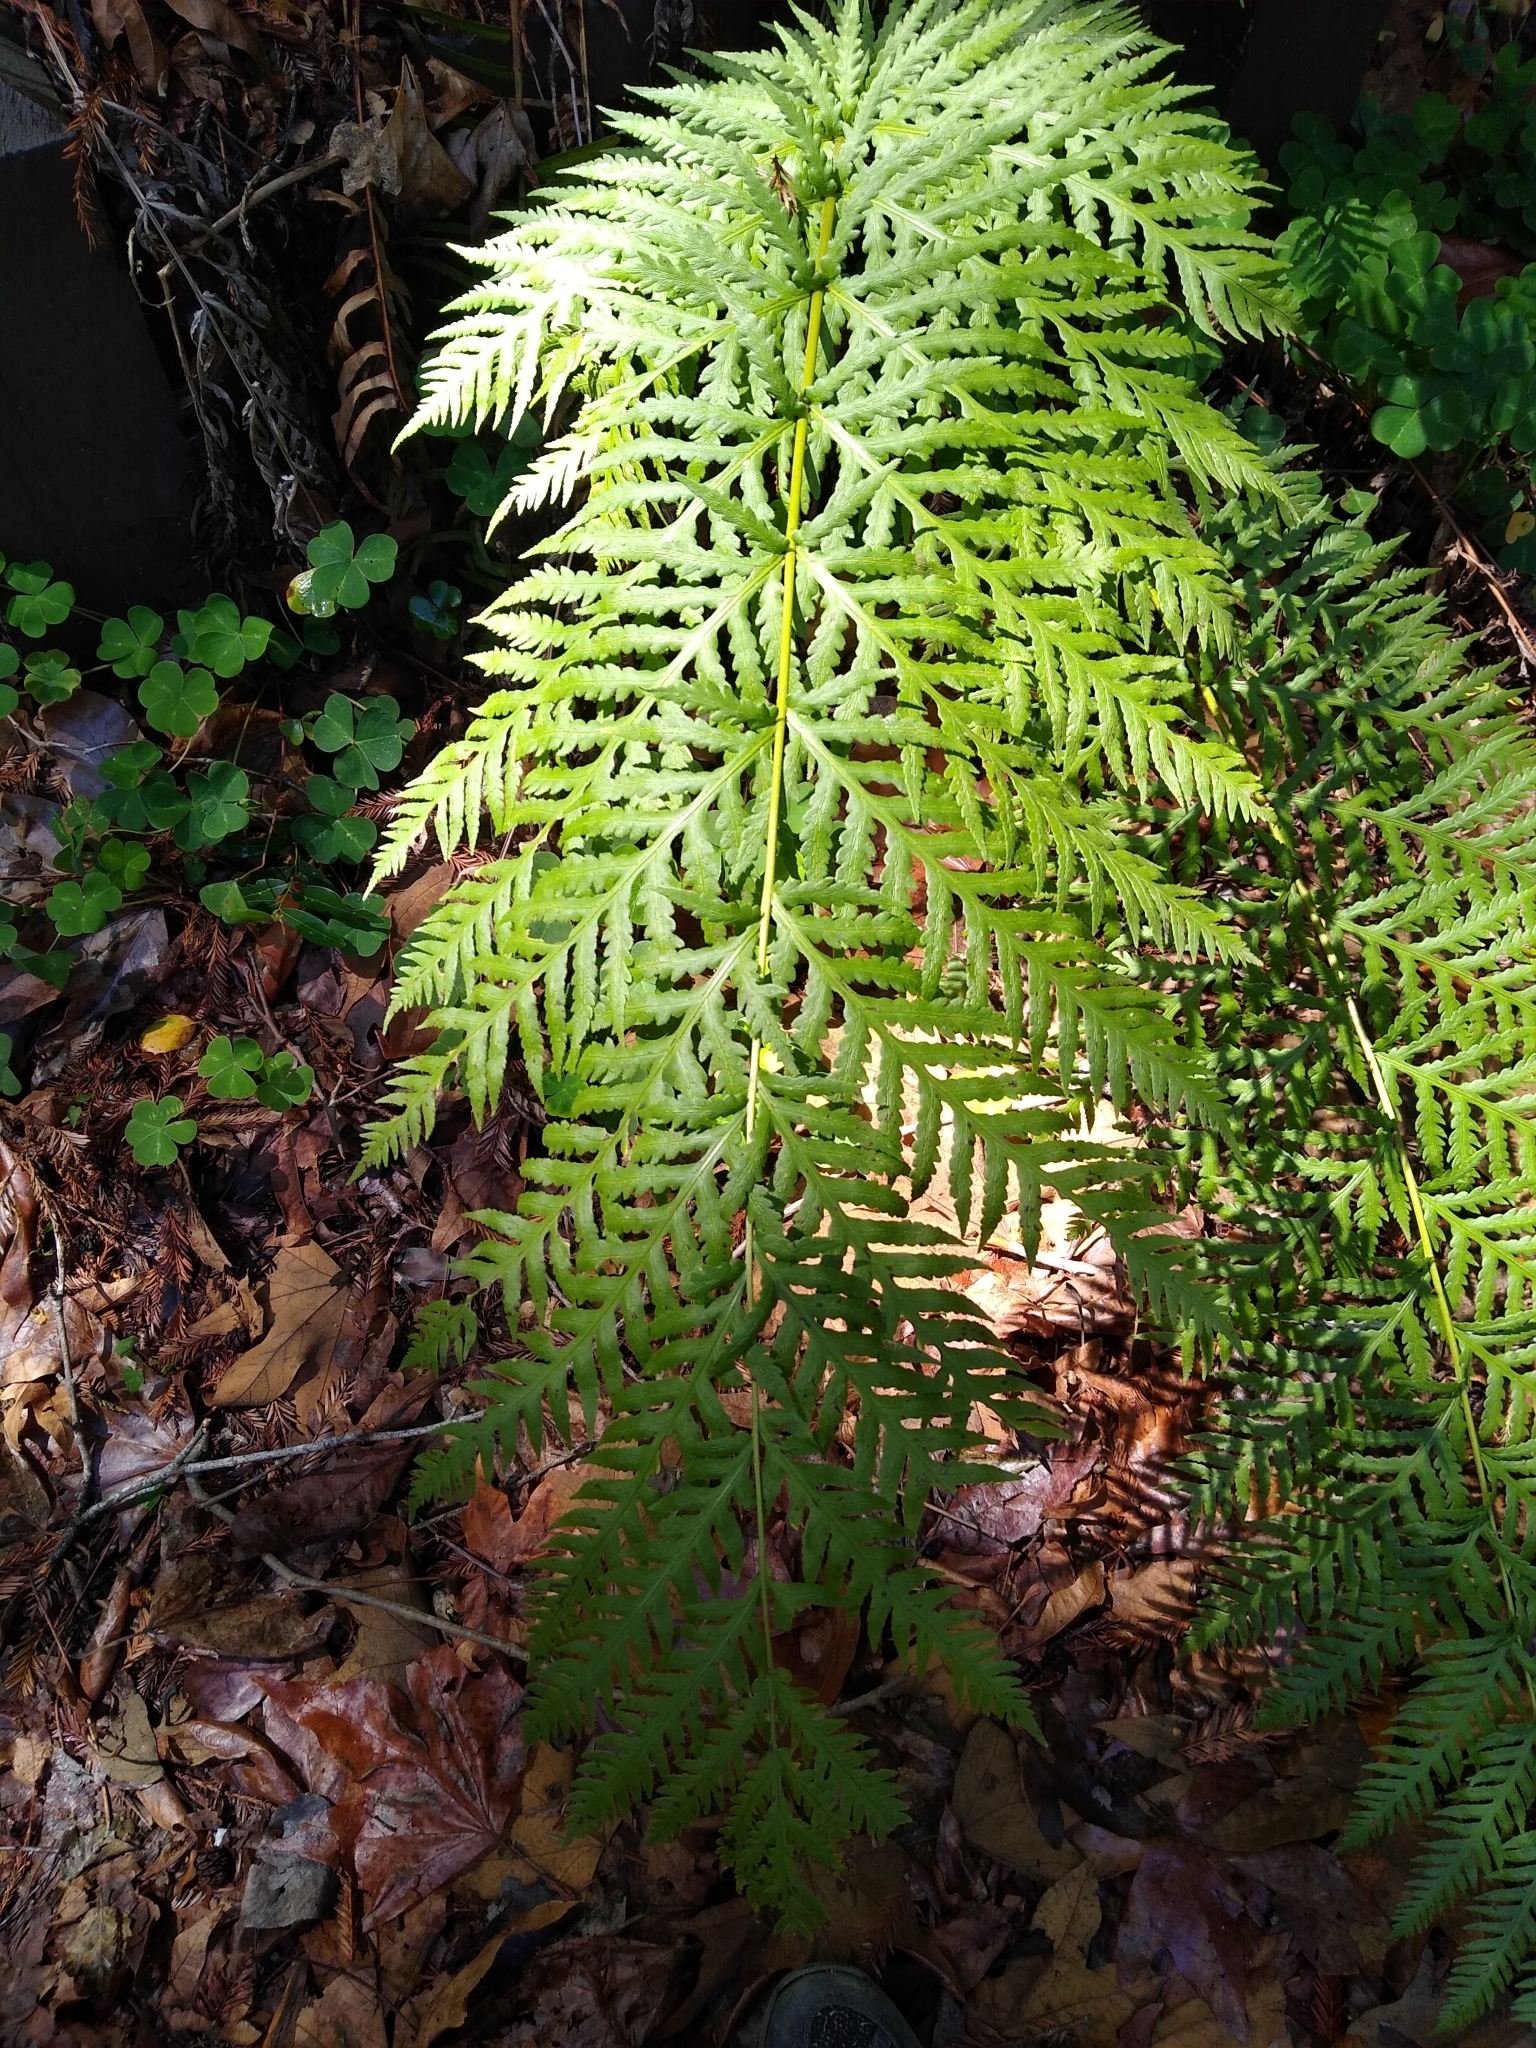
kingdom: Plantae
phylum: Tracheophyta
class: Polypodiopsida
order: Polypodiales
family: Blechnaceae
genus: Woodwardia
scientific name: Woodwardia fimbriata
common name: Giant chain fern
